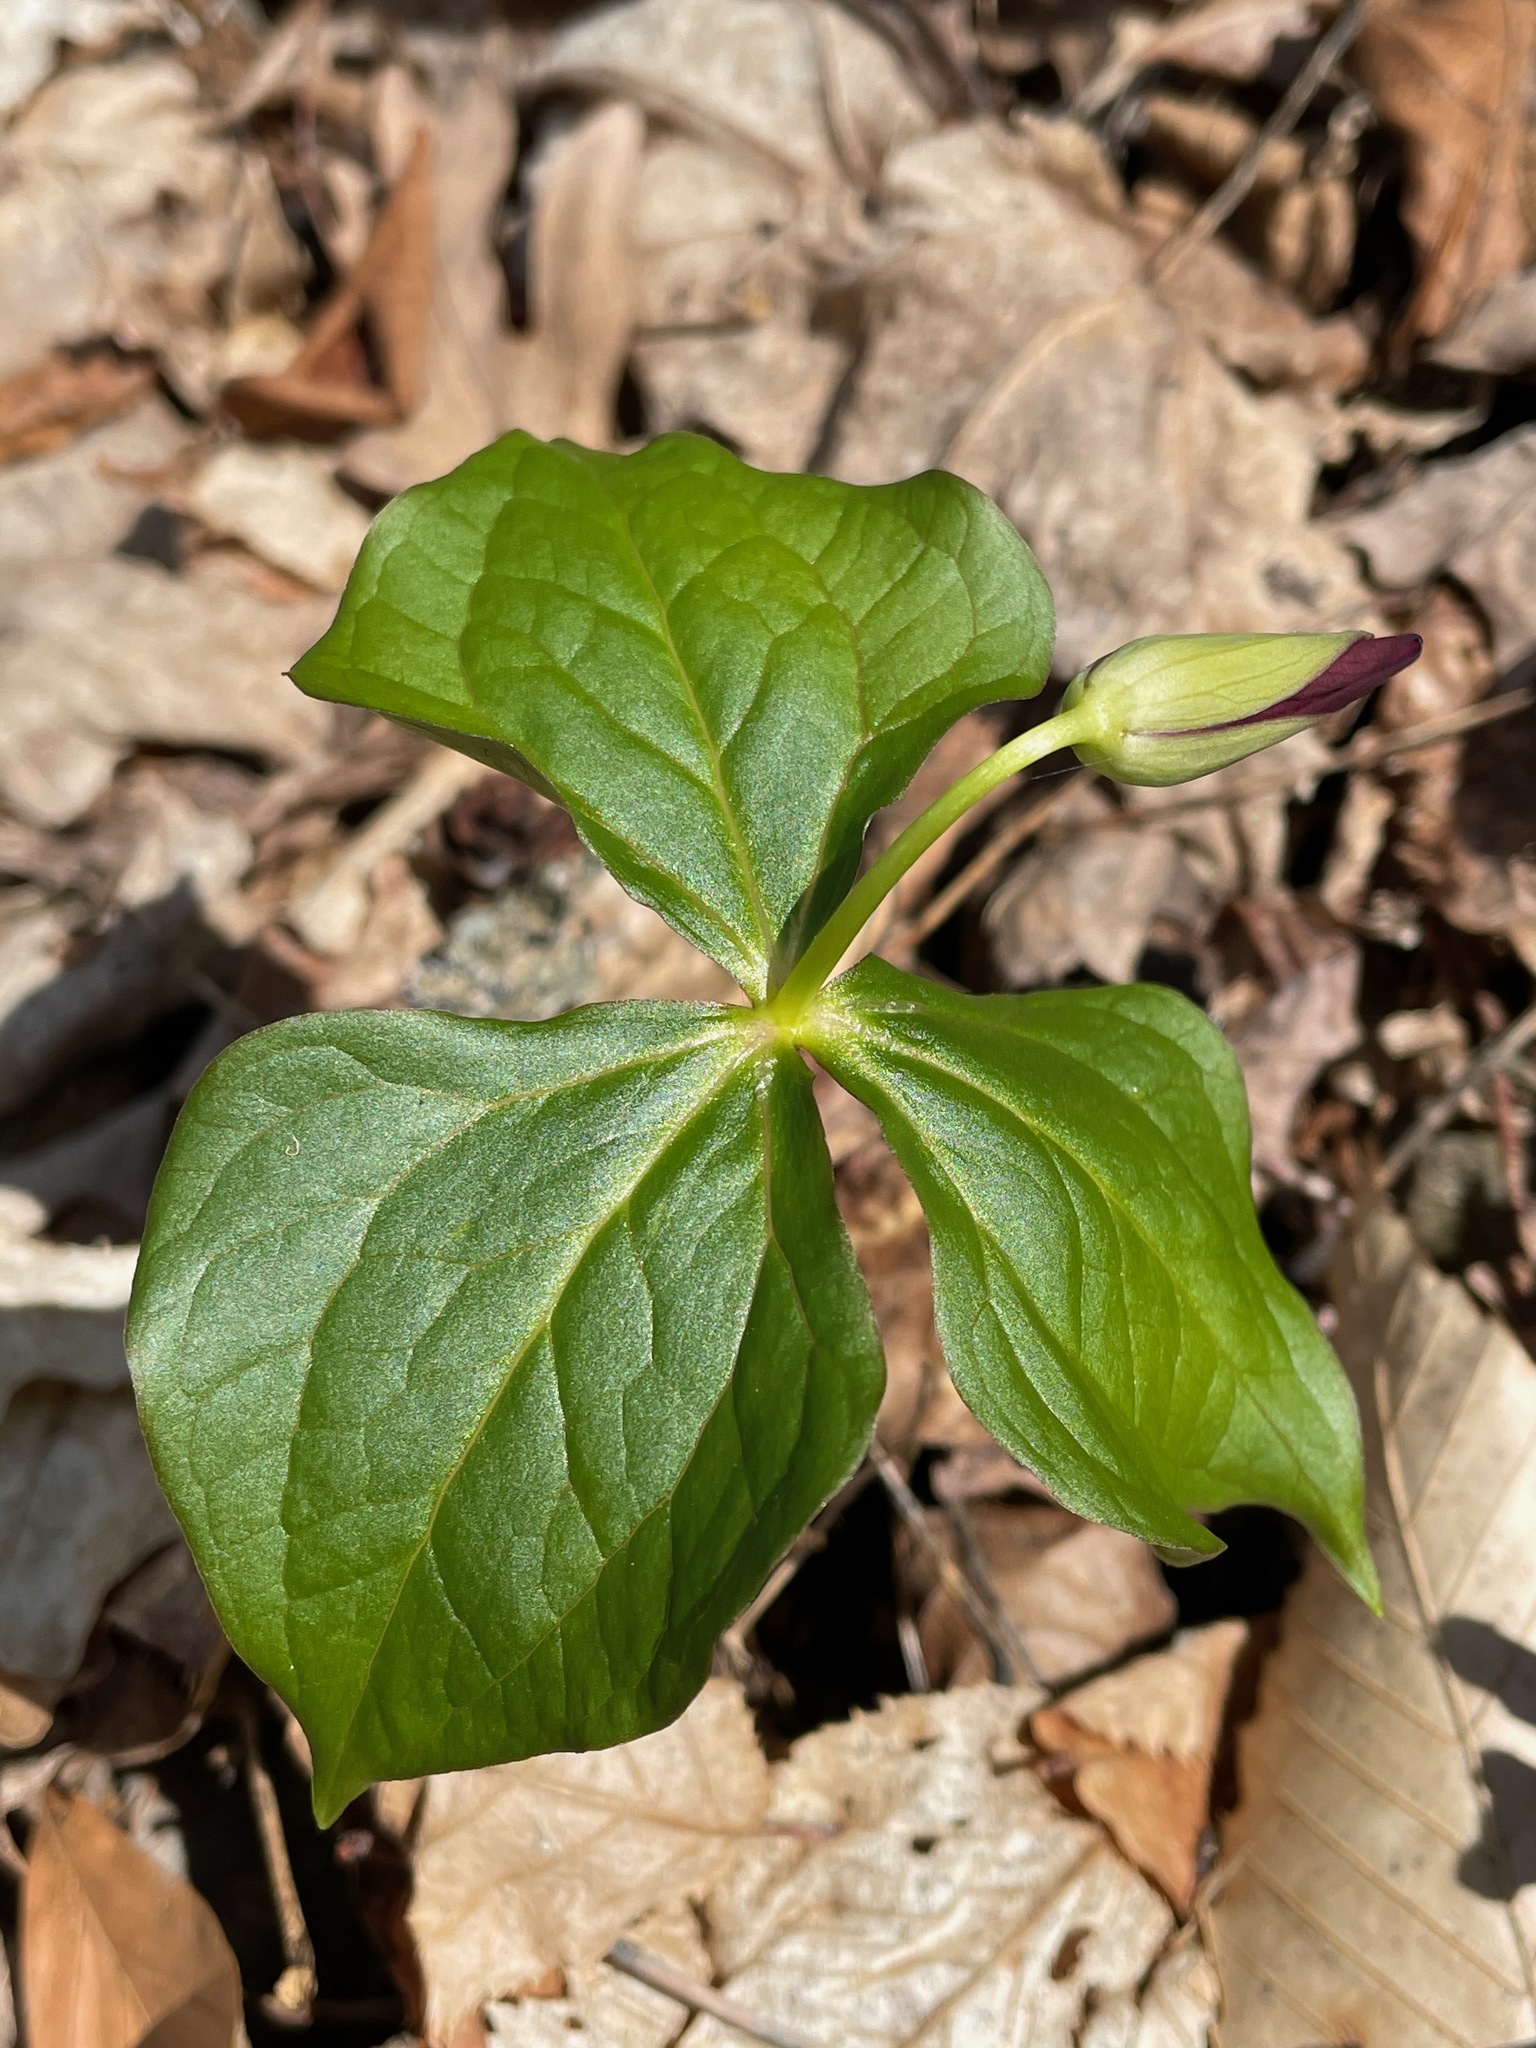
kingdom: Plantae
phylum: Tracheophyta
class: Liliopsida
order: Liliales
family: Melanthiaceae
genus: Trillium
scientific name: Trillium erectum
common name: Purple trillium
